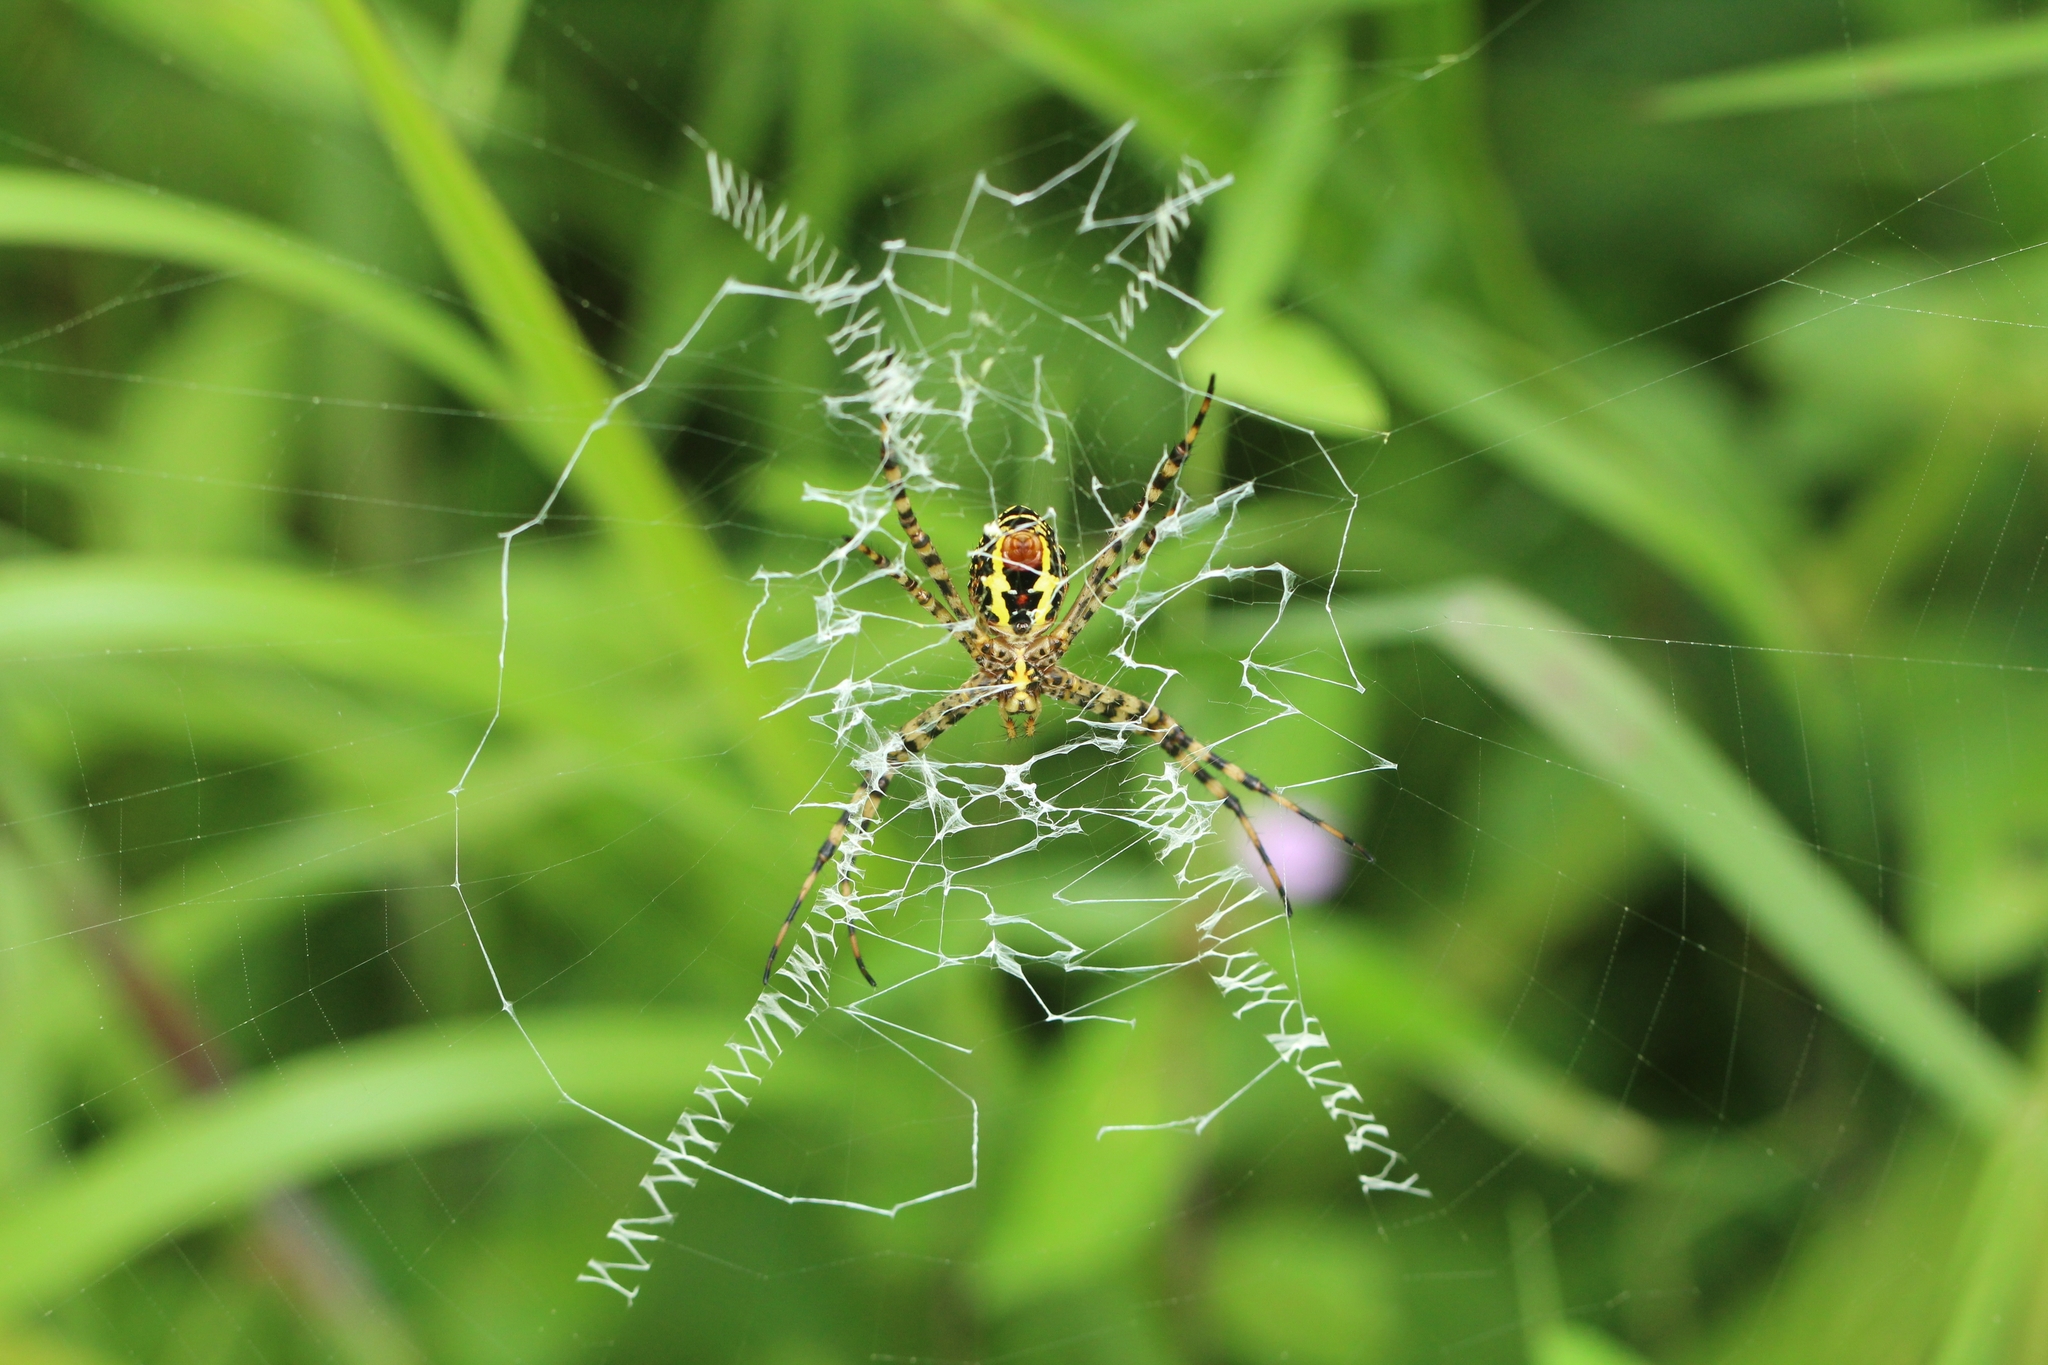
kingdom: Animalia
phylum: Arthropoda
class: Arachnida
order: Araneae
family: Araneidae
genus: Argiope
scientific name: Argiope aemula
